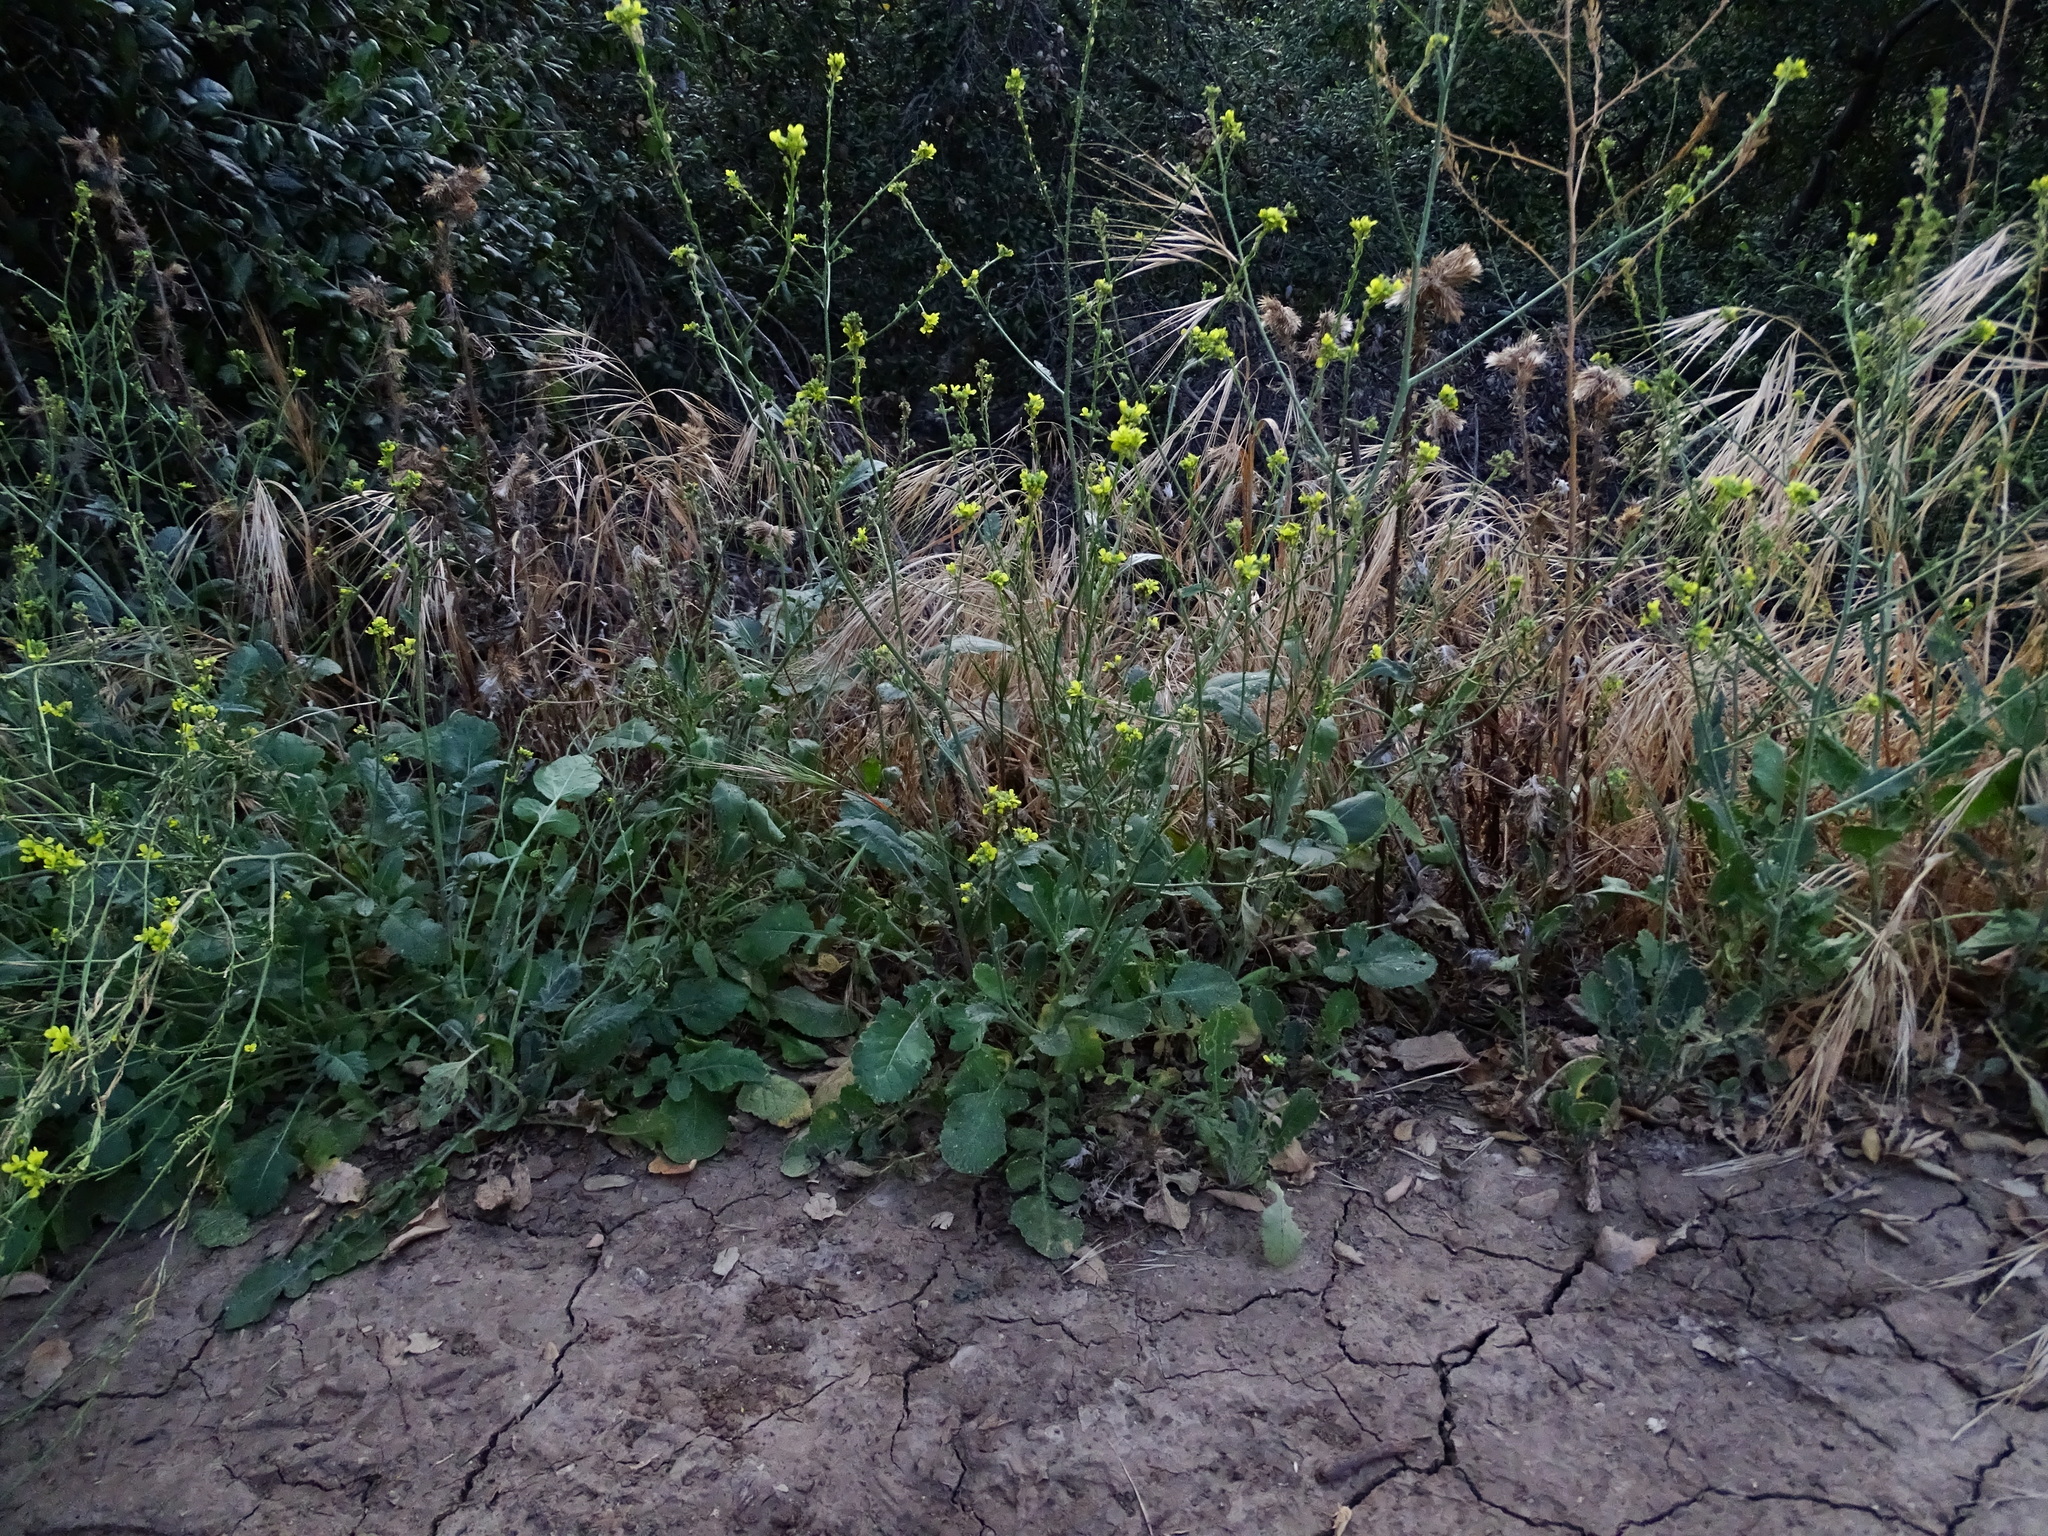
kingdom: Plantae
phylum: Tracheophyta
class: Magnoliopsida
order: Brassicales
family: Brassicaceae
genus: Hirschfeldia
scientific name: Hirschfeldia incana
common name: Hoary mustard
